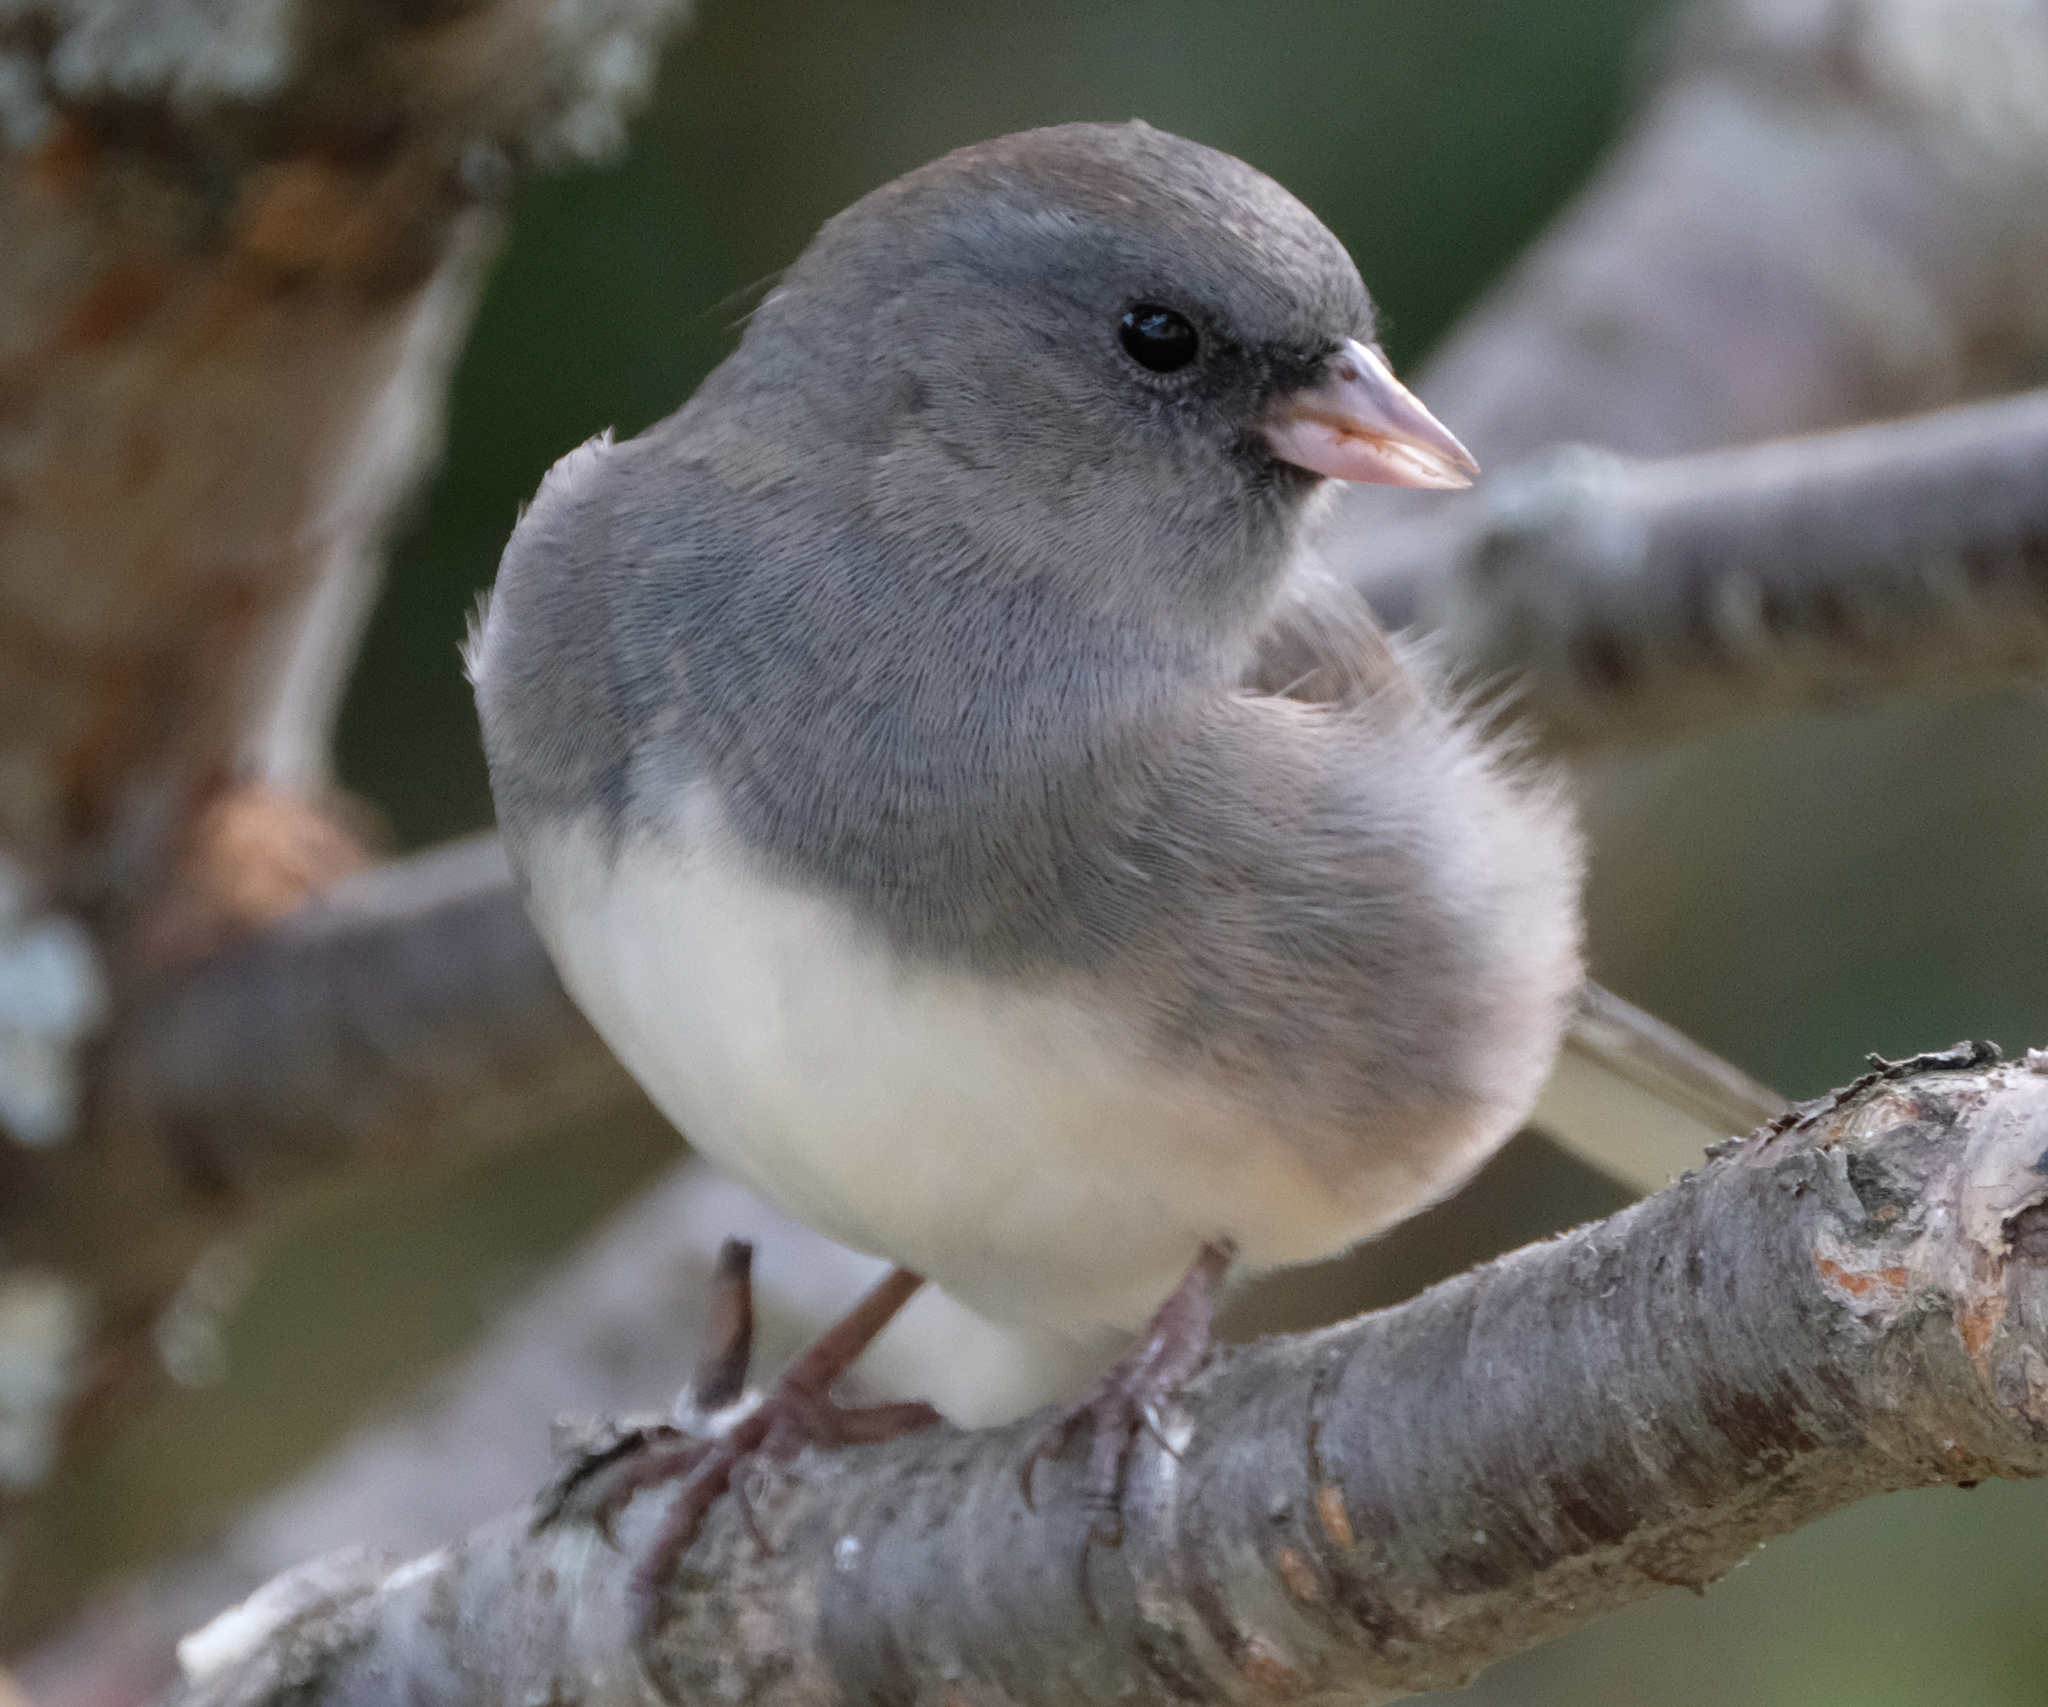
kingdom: Animalia
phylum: Chordata
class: Aves
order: Passeriformes
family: Passerellidae
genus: Junco
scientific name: Junco hyemalis
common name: Dark-eyed junco
